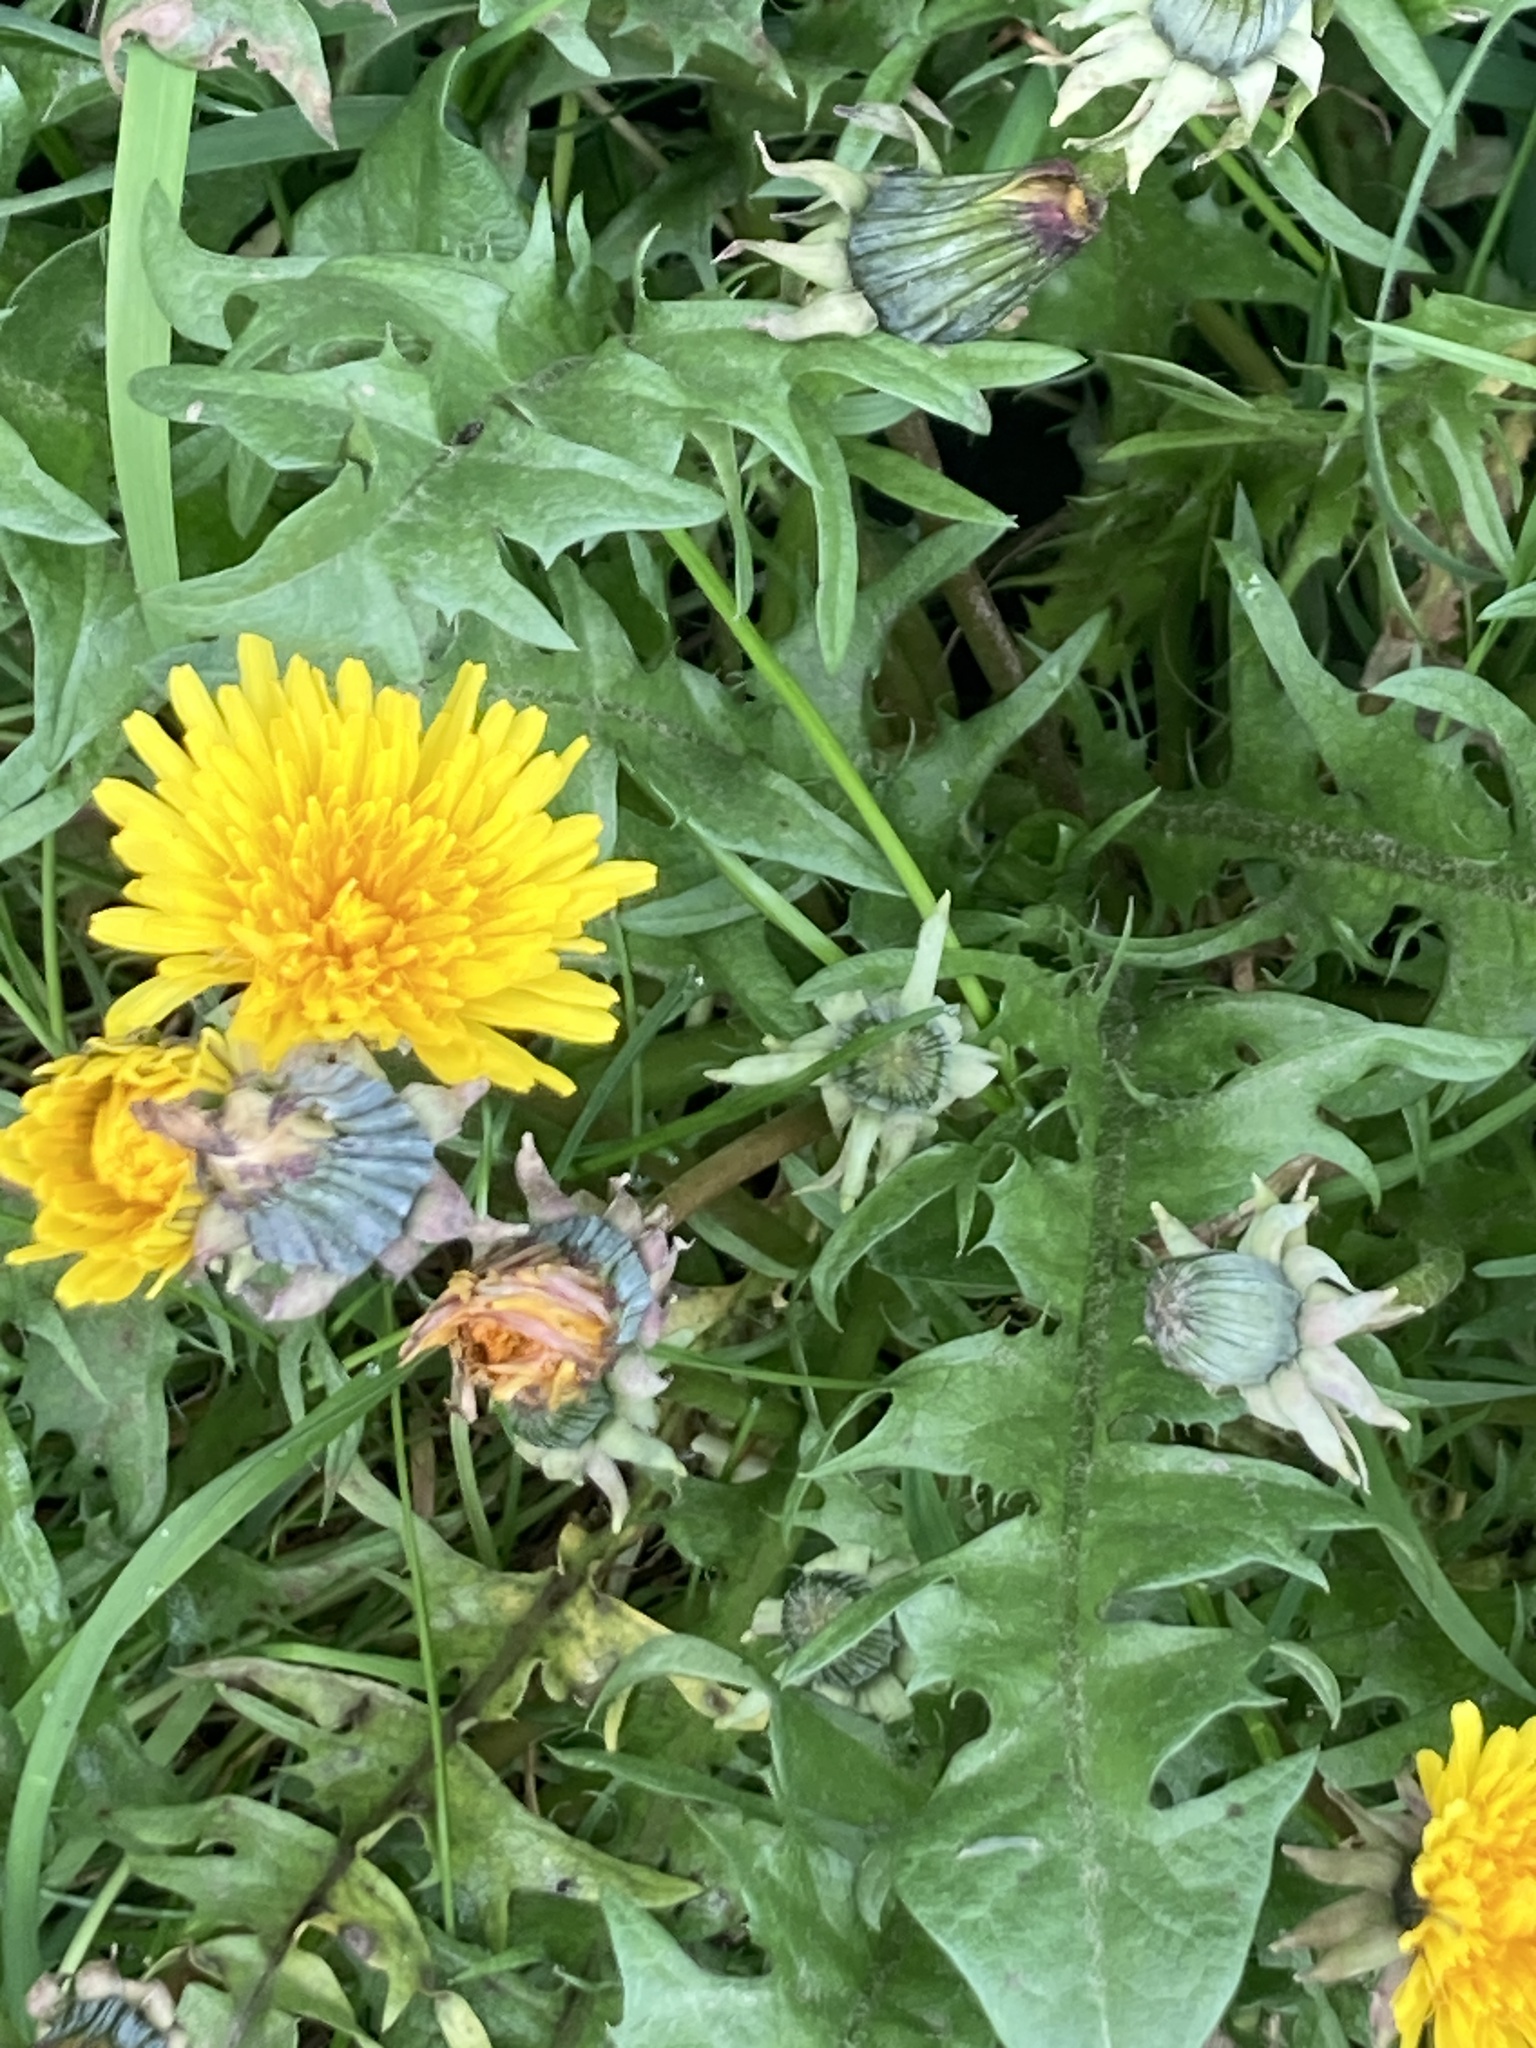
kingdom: Plantae
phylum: Tracheophyta
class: Magnoliopsida
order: Asterales
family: Asteraceae
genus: Taraxacum
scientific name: Taraxacum officinale
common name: Common dandelion
